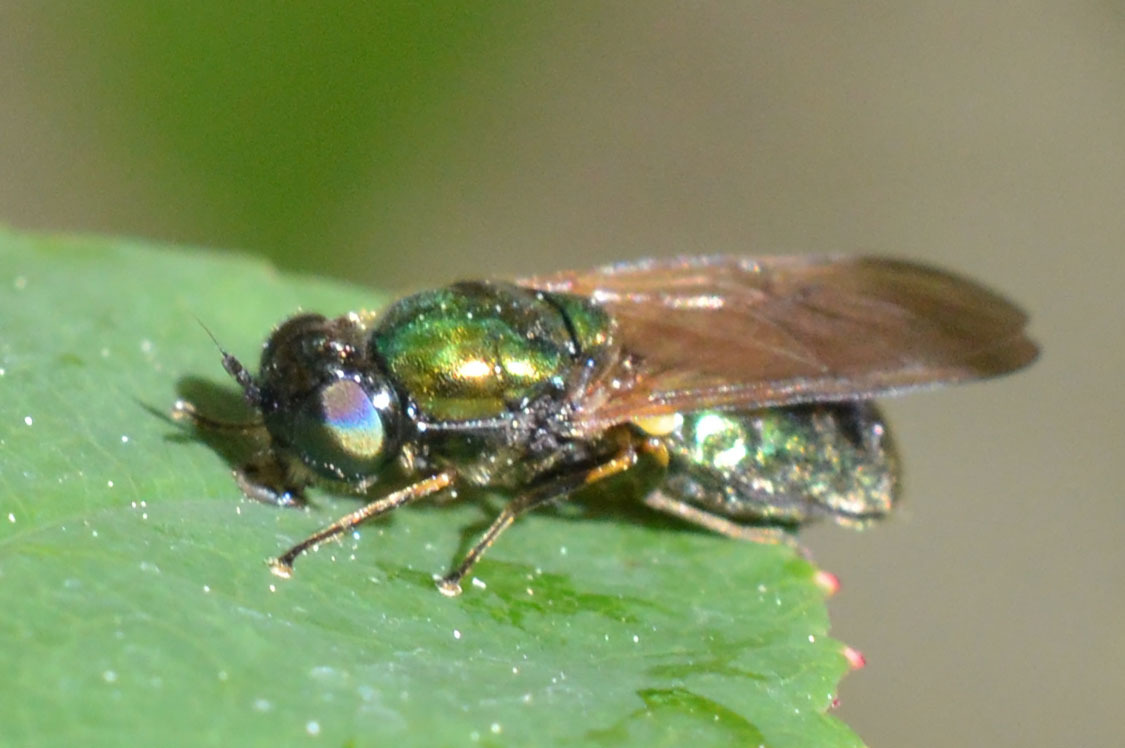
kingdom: Animalia
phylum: Arthropoda
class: Insecta
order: Diptera
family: Stratiomyidae
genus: Chloromyia
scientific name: Chloromyia formosa
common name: Soldier fly
